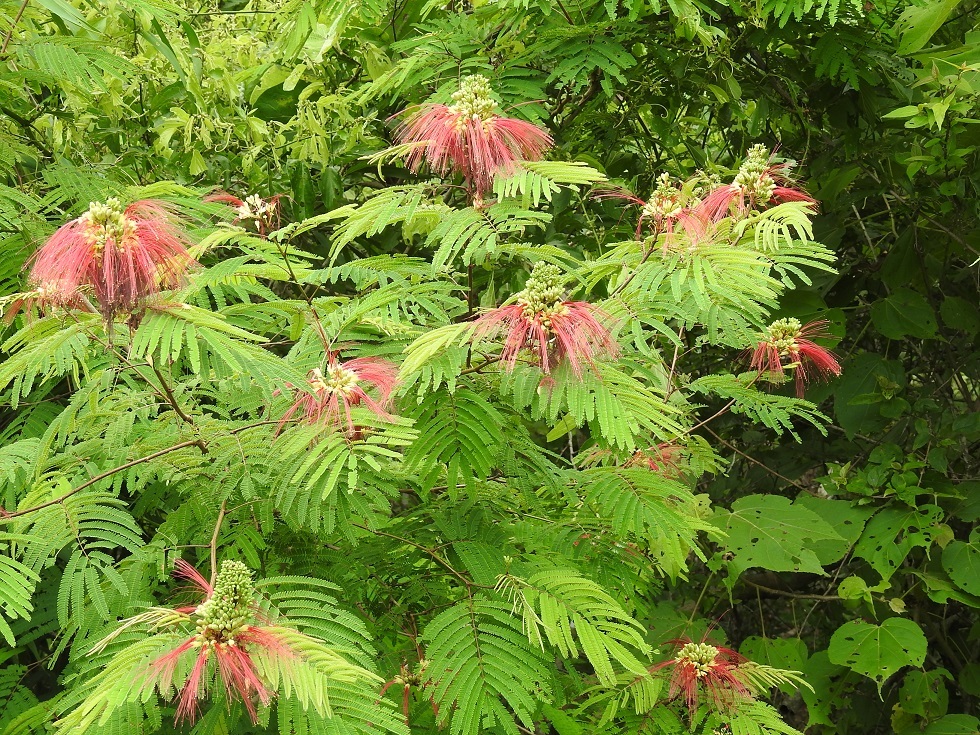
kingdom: Plantae
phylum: Tracheophyta
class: Magnoliopsida
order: Fabales
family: Fabaceae
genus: Calliandra
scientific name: Calliandra houstoniana
